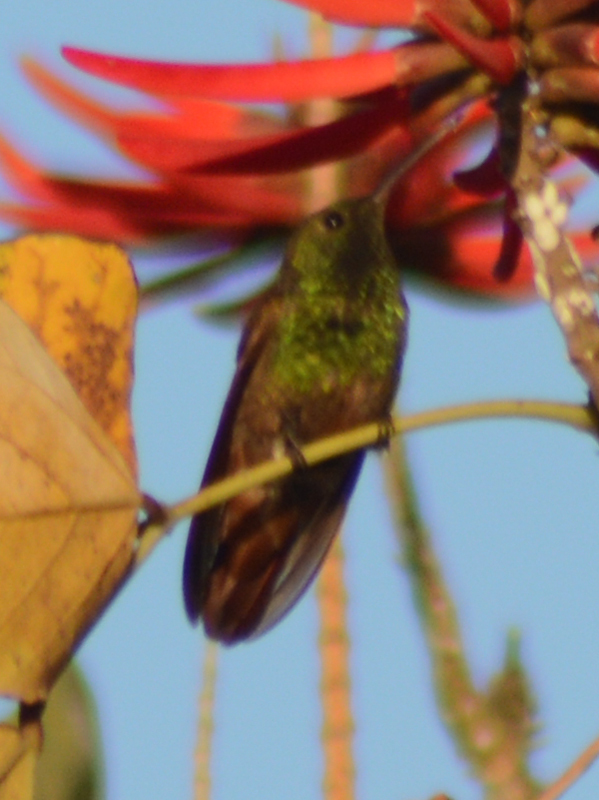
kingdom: Animalia
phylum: Chordata
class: Aves
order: Apodiformes
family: Trochilidae
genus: Saucerottia
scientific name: Saucerottia beryllina
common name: Berylline hummingbird
